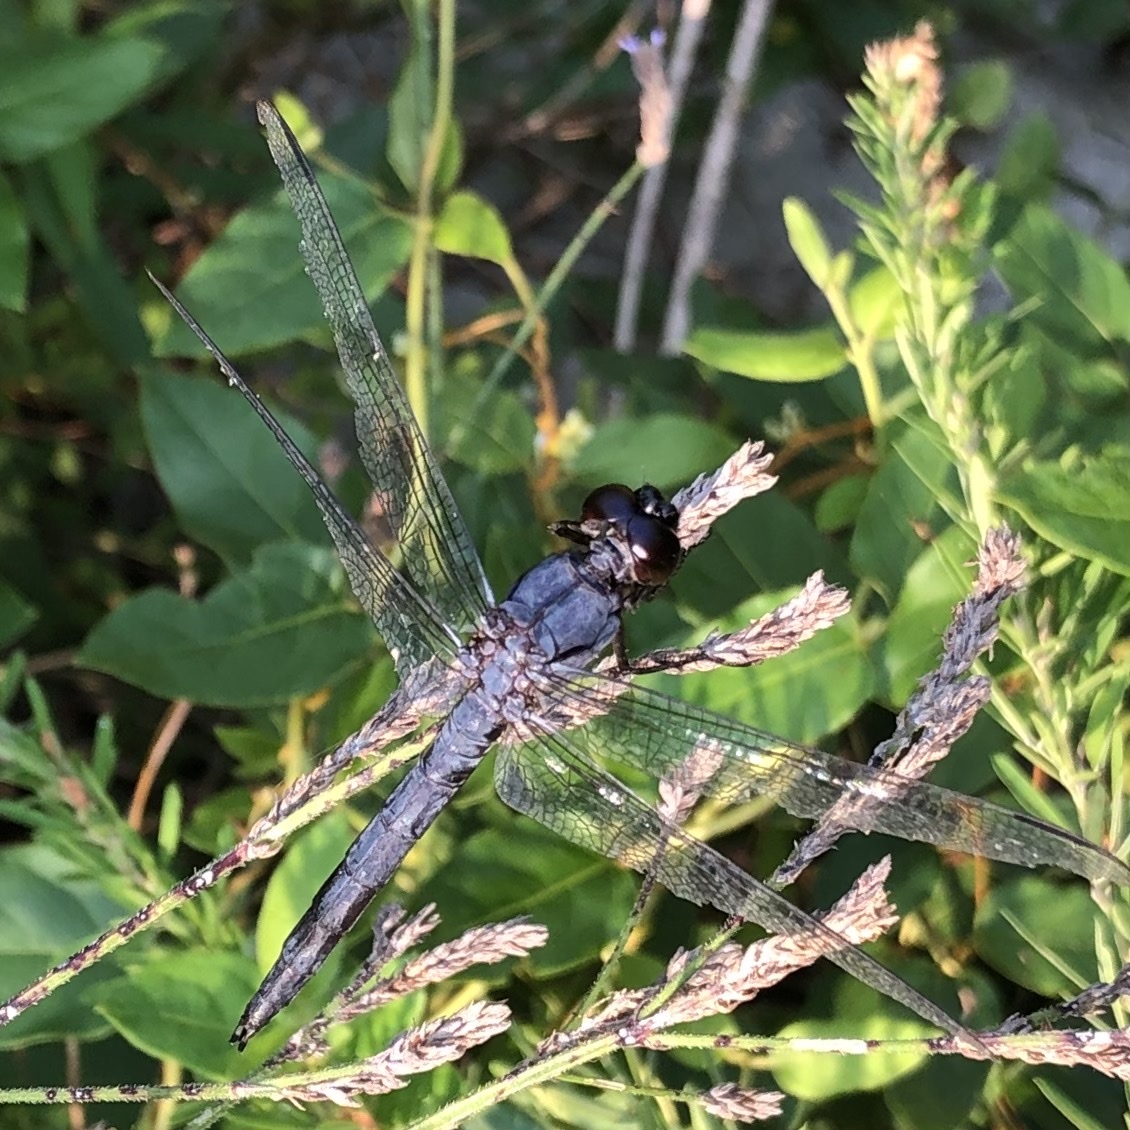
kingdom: Animalia
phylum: Arthropoda
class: Insecta
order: Odonata
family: Libellulidae
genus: Libellula
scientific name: Libellula incesta
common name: Slaty skimmer
